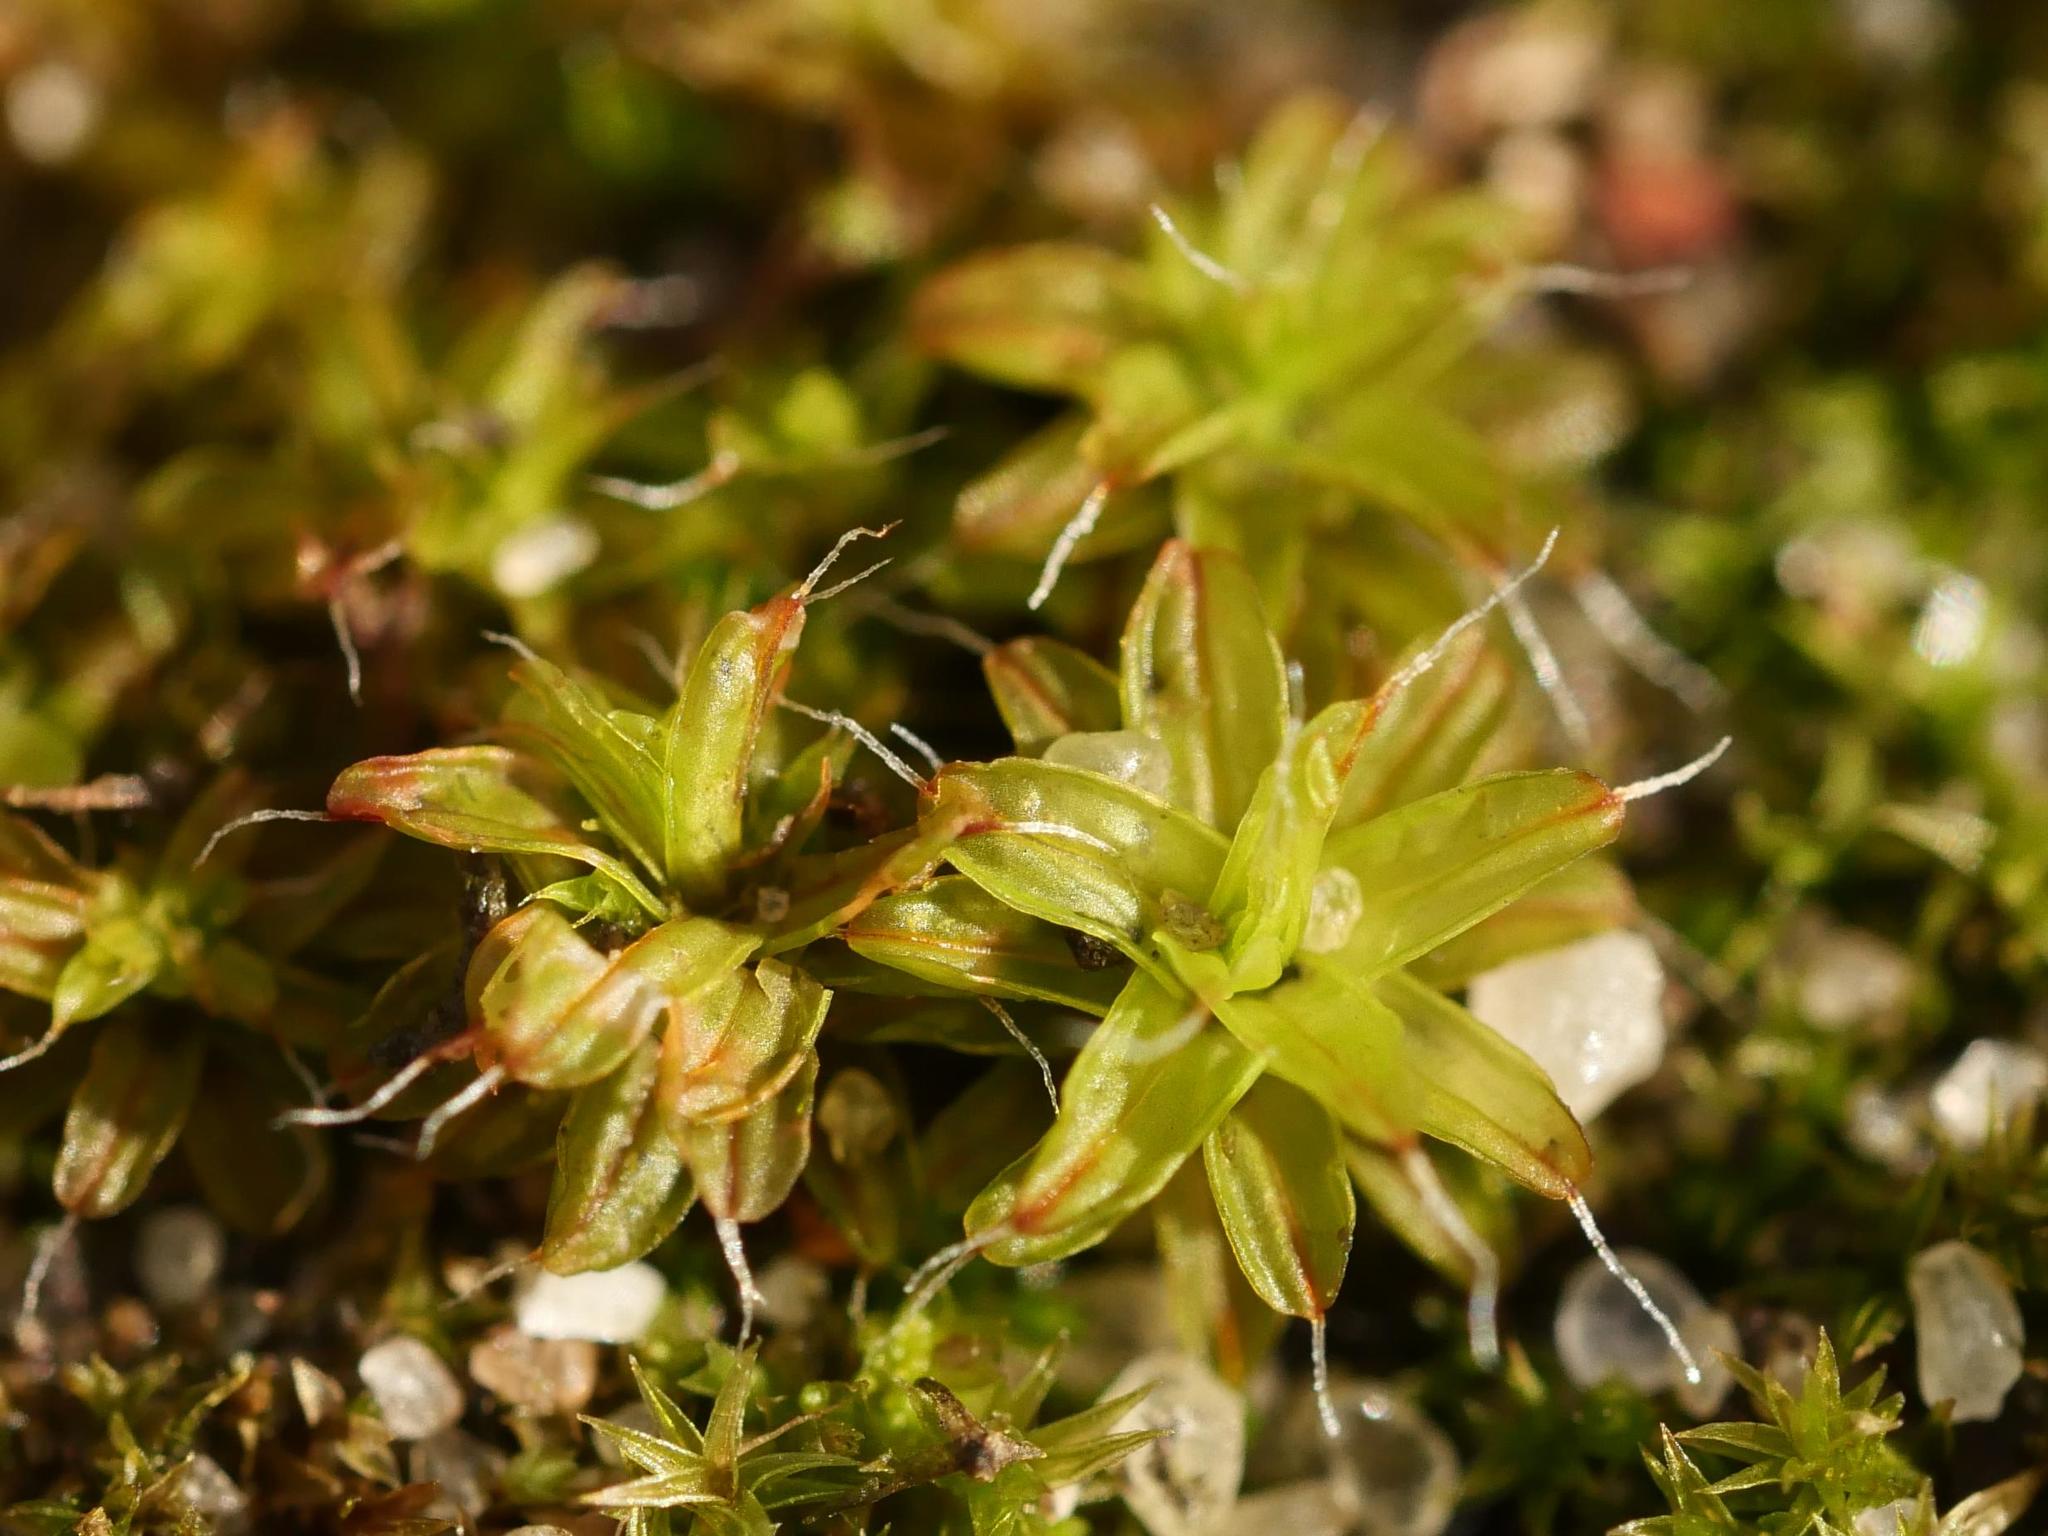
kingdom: Plantae
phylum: Bryophyta
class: Bryopsida
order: Pottiales
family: Pottiaceae
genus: Syntrichia
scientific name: Syntrichia ruralis
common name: Sidewalk screw moss
